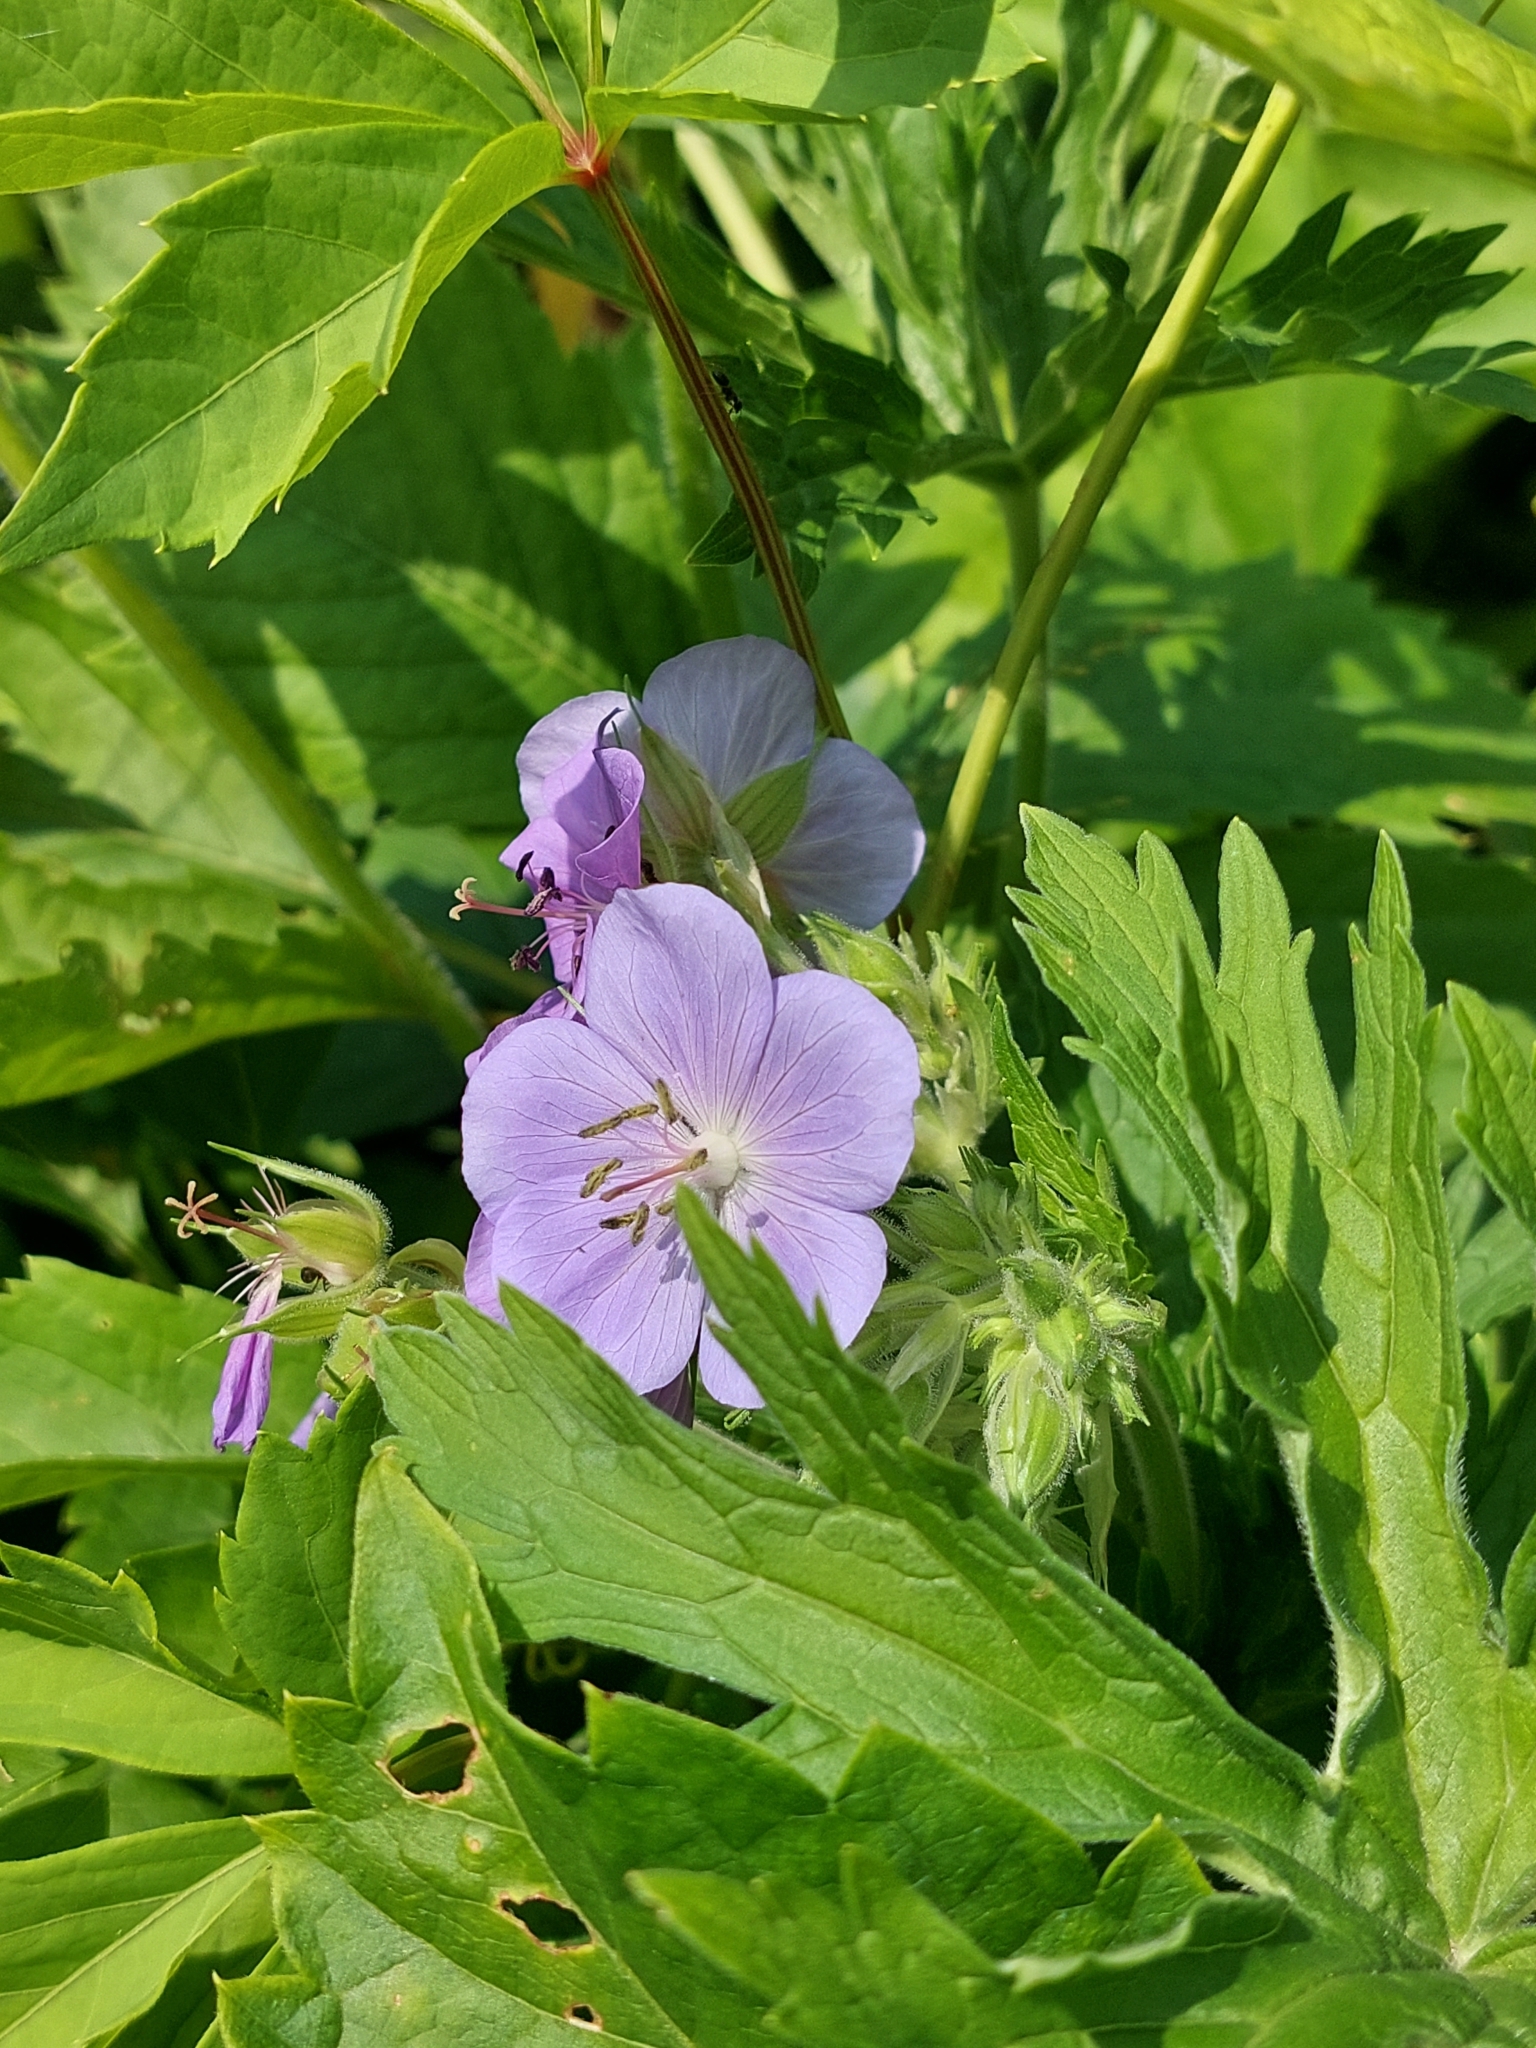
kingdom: Plantae
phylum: Tracheophyta
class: Magnoliopsida
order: Geraniales
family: Geraniaceae
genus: Geranium
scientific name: Geranium pratense
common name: Meadow crane's-bill
